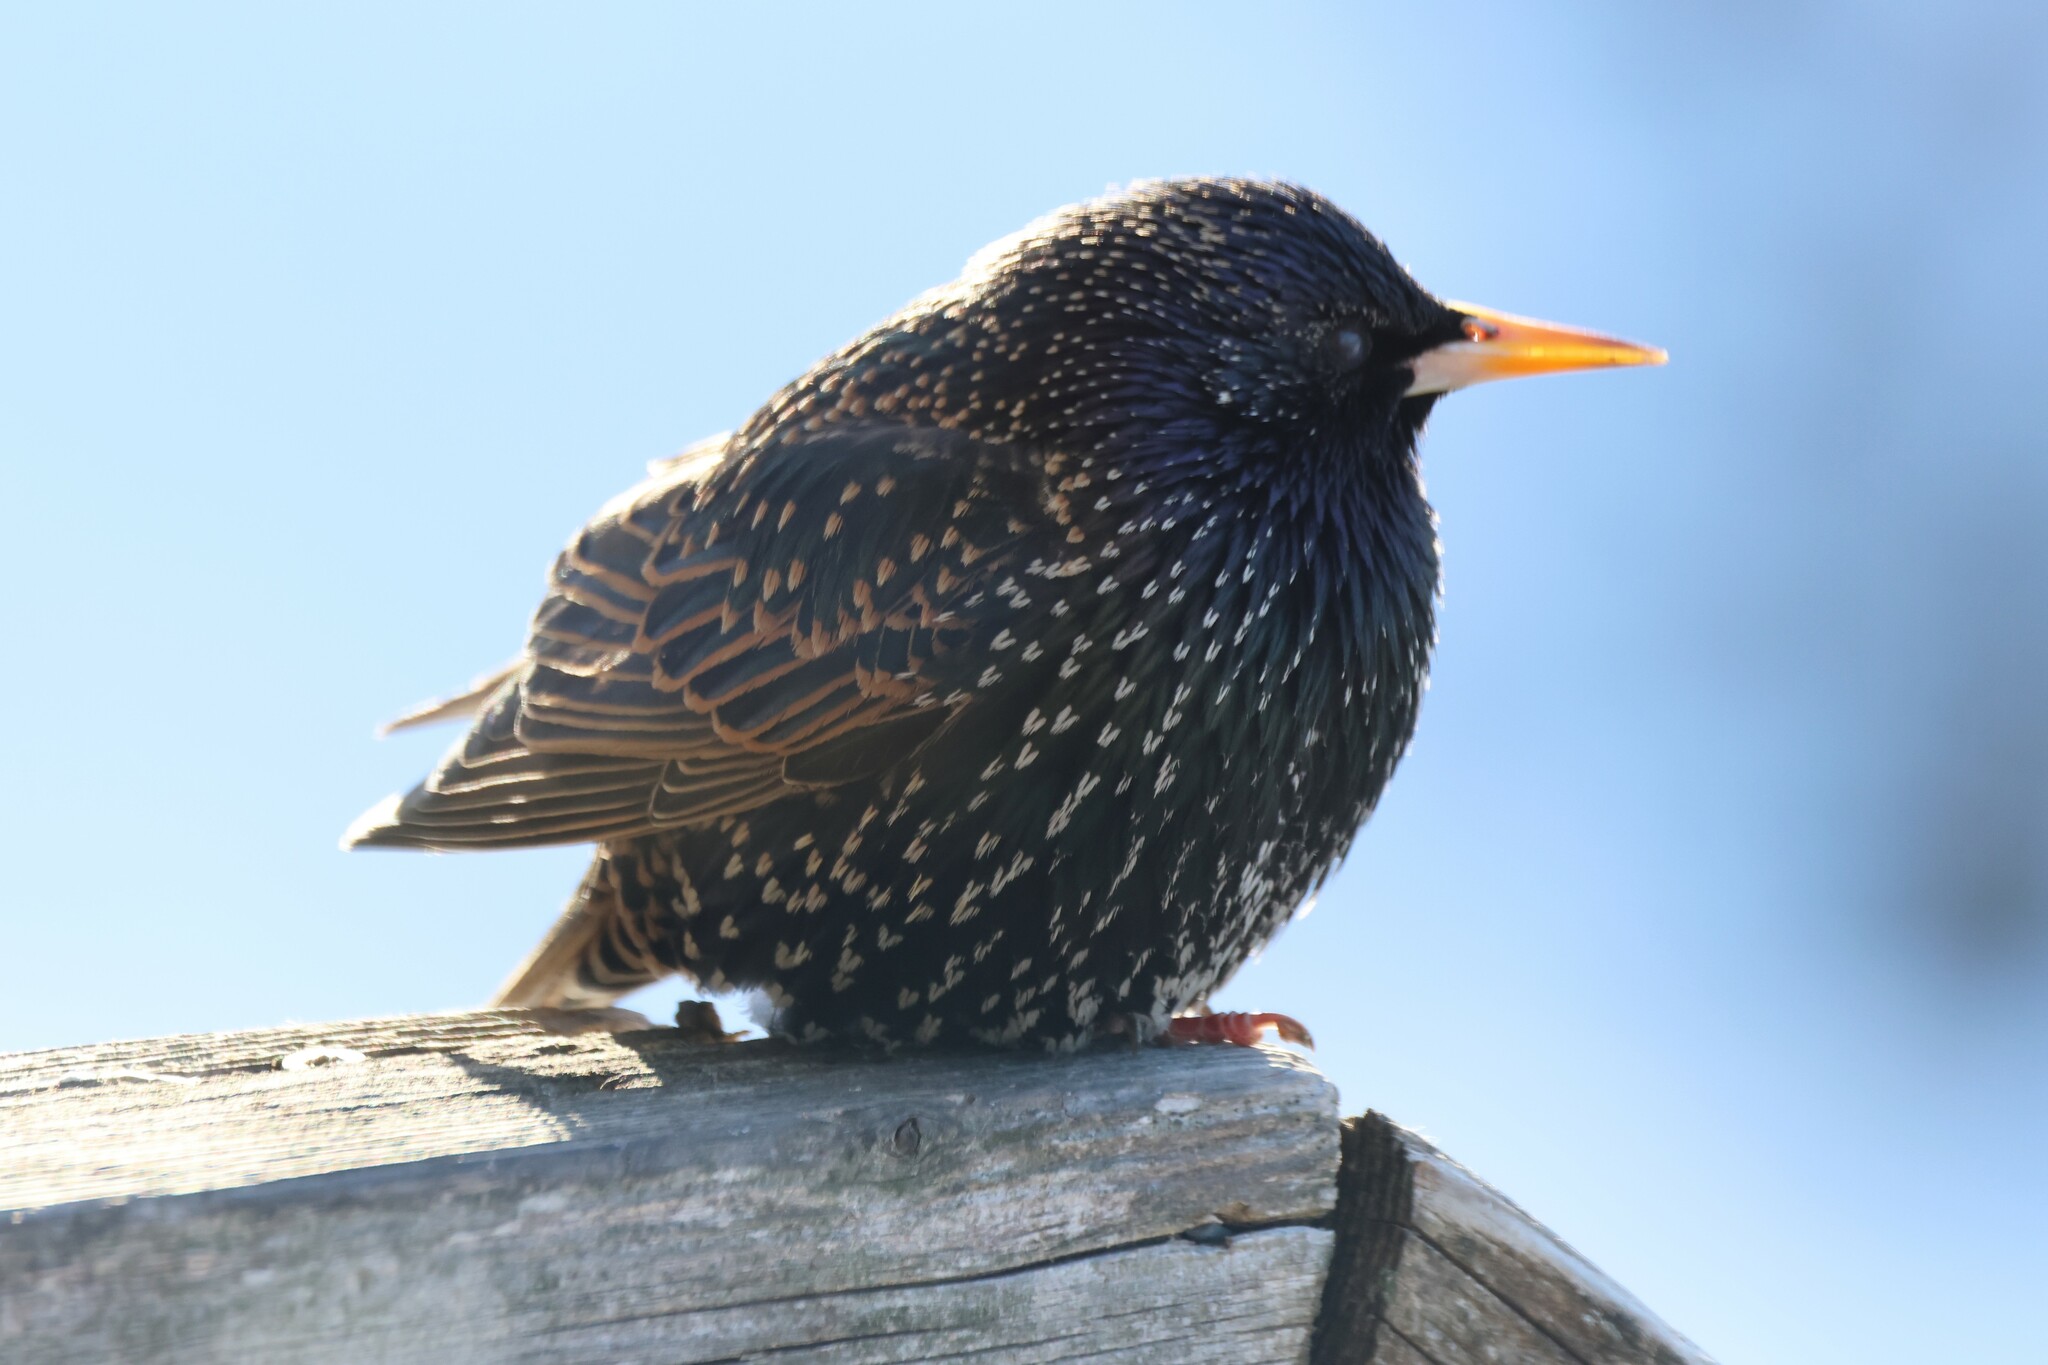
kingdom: Animalia
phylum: Chordata
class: Aves
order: Passeriformes
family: Sturnidae
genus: Sturnus
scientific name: Sturnus vulgaris
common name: Common starling
